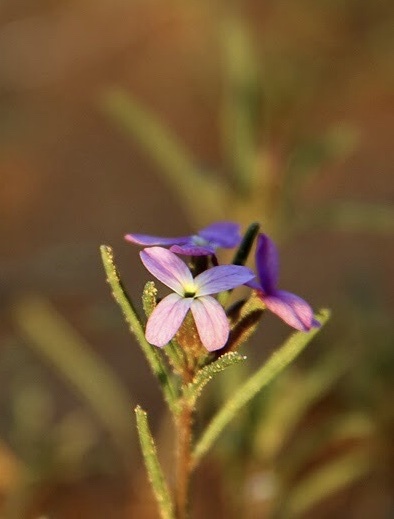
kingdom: Plantae
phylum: Tracheophyta
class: Magnoliopsida
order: Brassicales
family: Brassicaceae
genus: Eremobium
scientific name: Eremobium aegyptiacum
